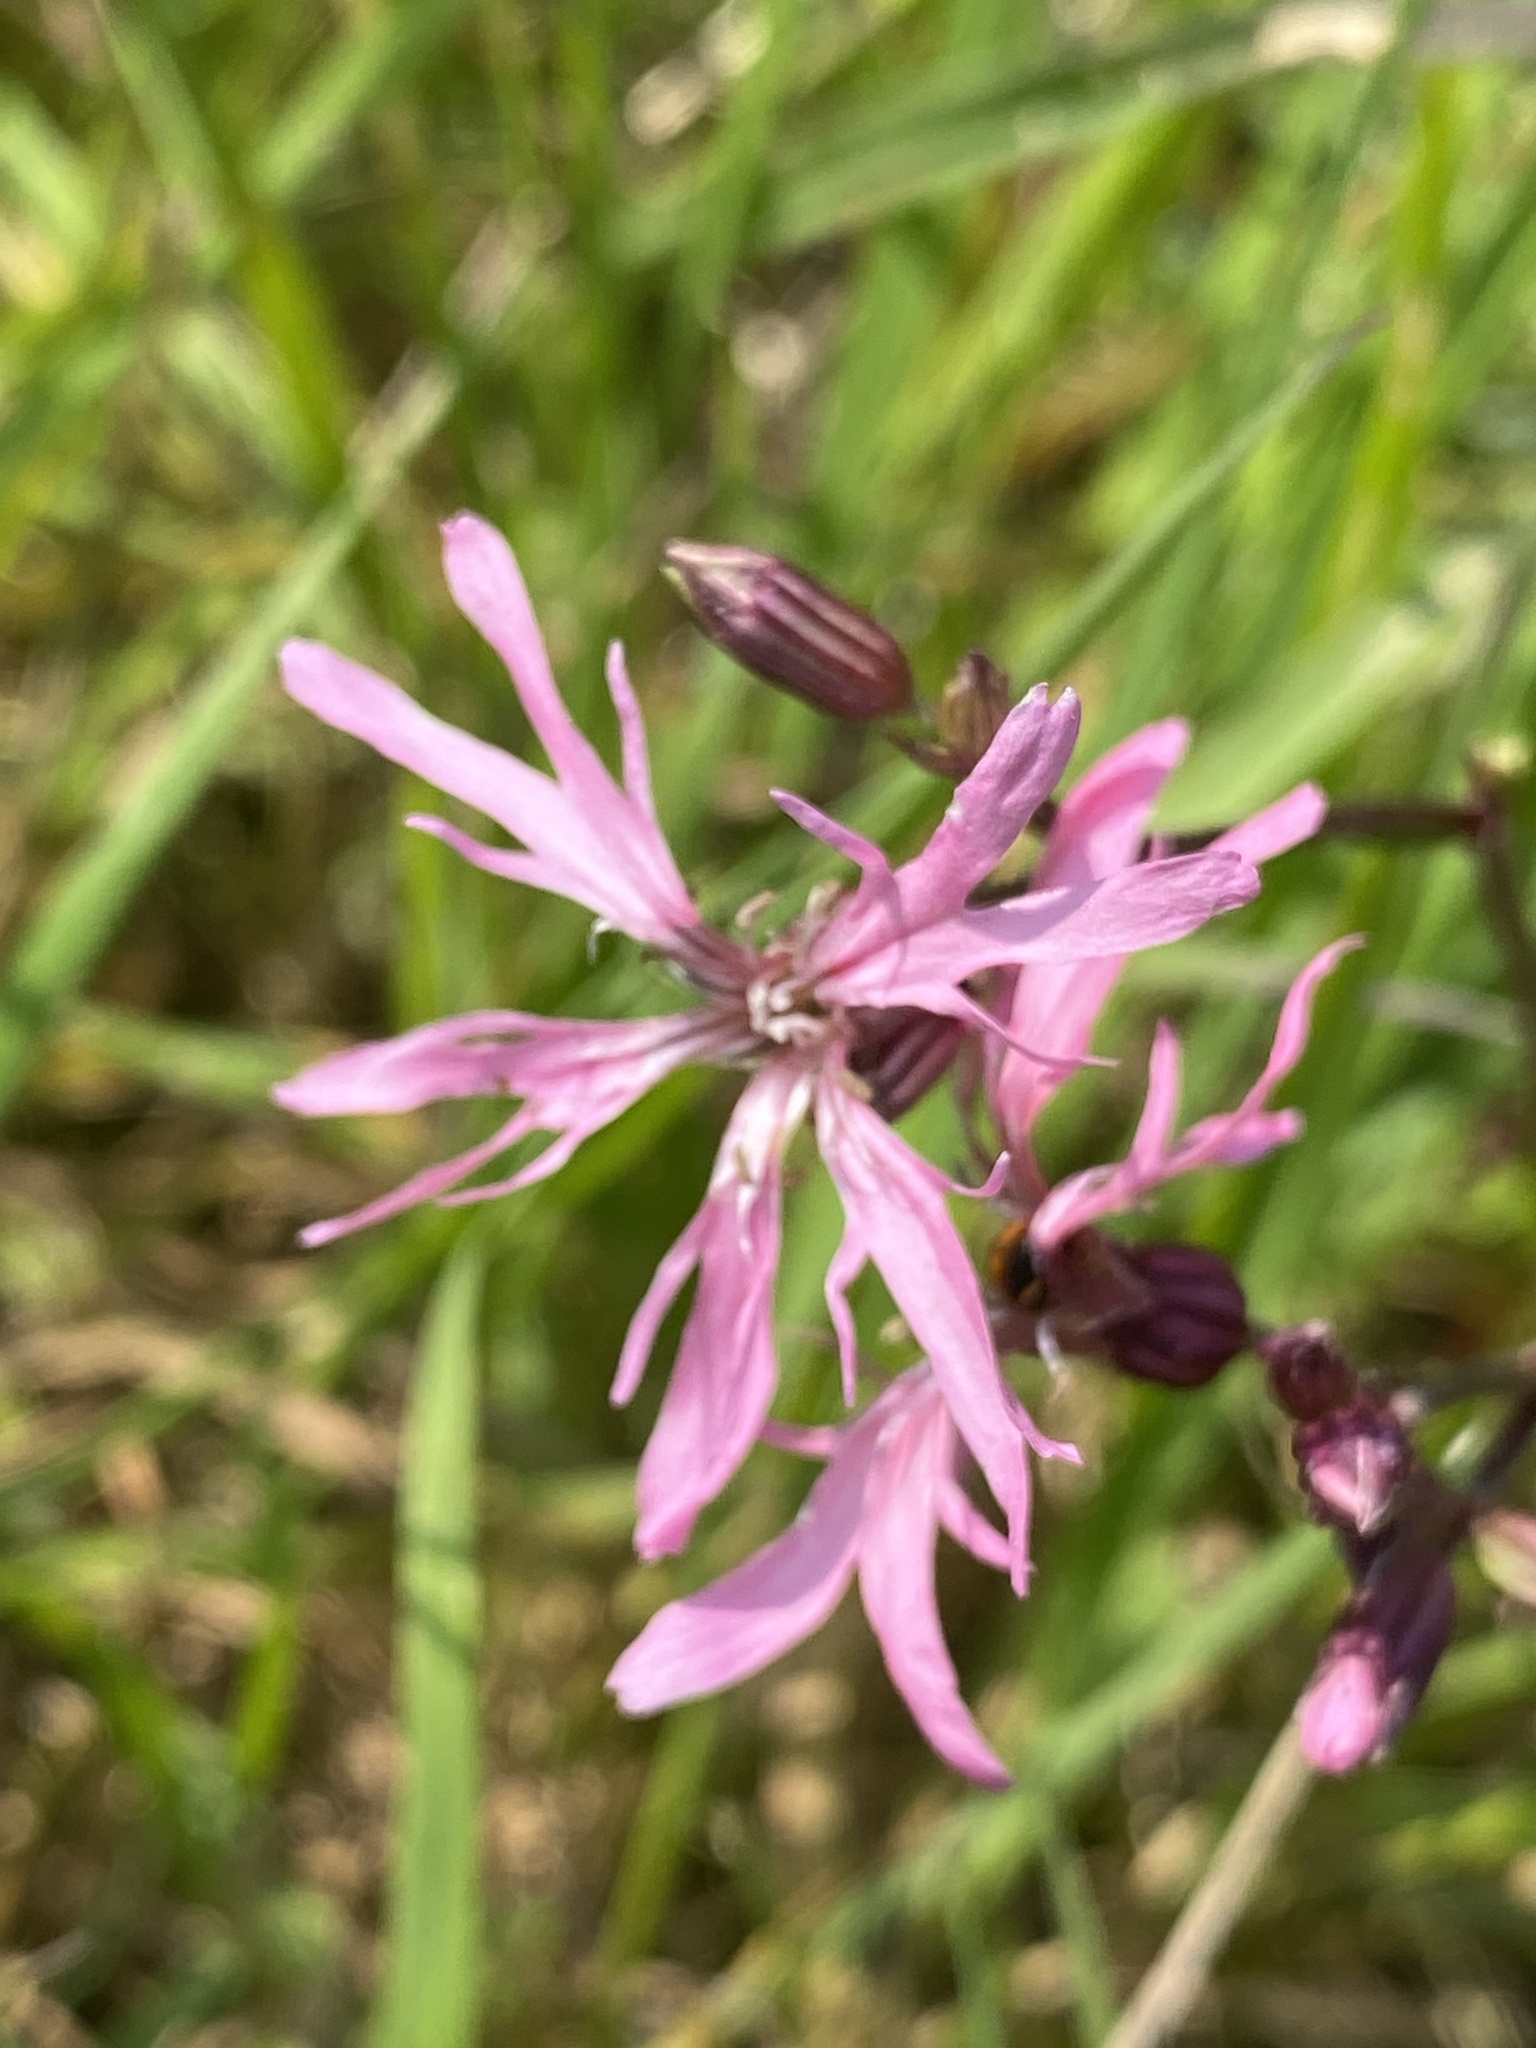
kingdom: Plantae
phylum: Tracheophyta
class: Magnoliopsida
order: Caryophyllales
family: Caryophyllaceae
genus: Silene
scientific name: Silene flos-cuculi
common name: Ragged-robin
